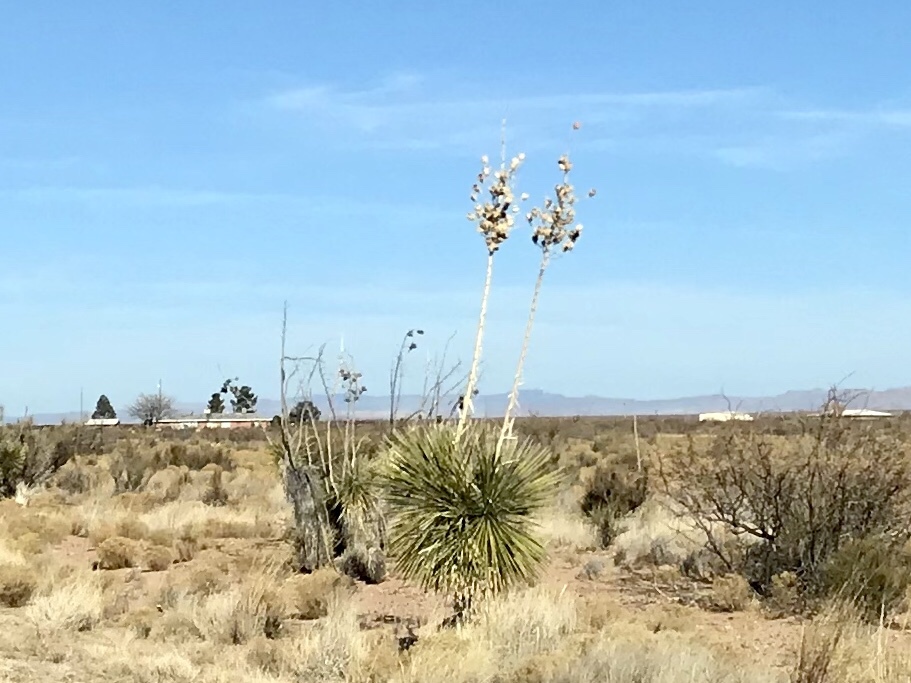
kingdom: Plantae
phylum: Tracheophyta
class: Liliopsida
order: Asparagales
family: Asparagaceae
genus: Yucca
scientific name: Yucca elata
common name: Palmella
